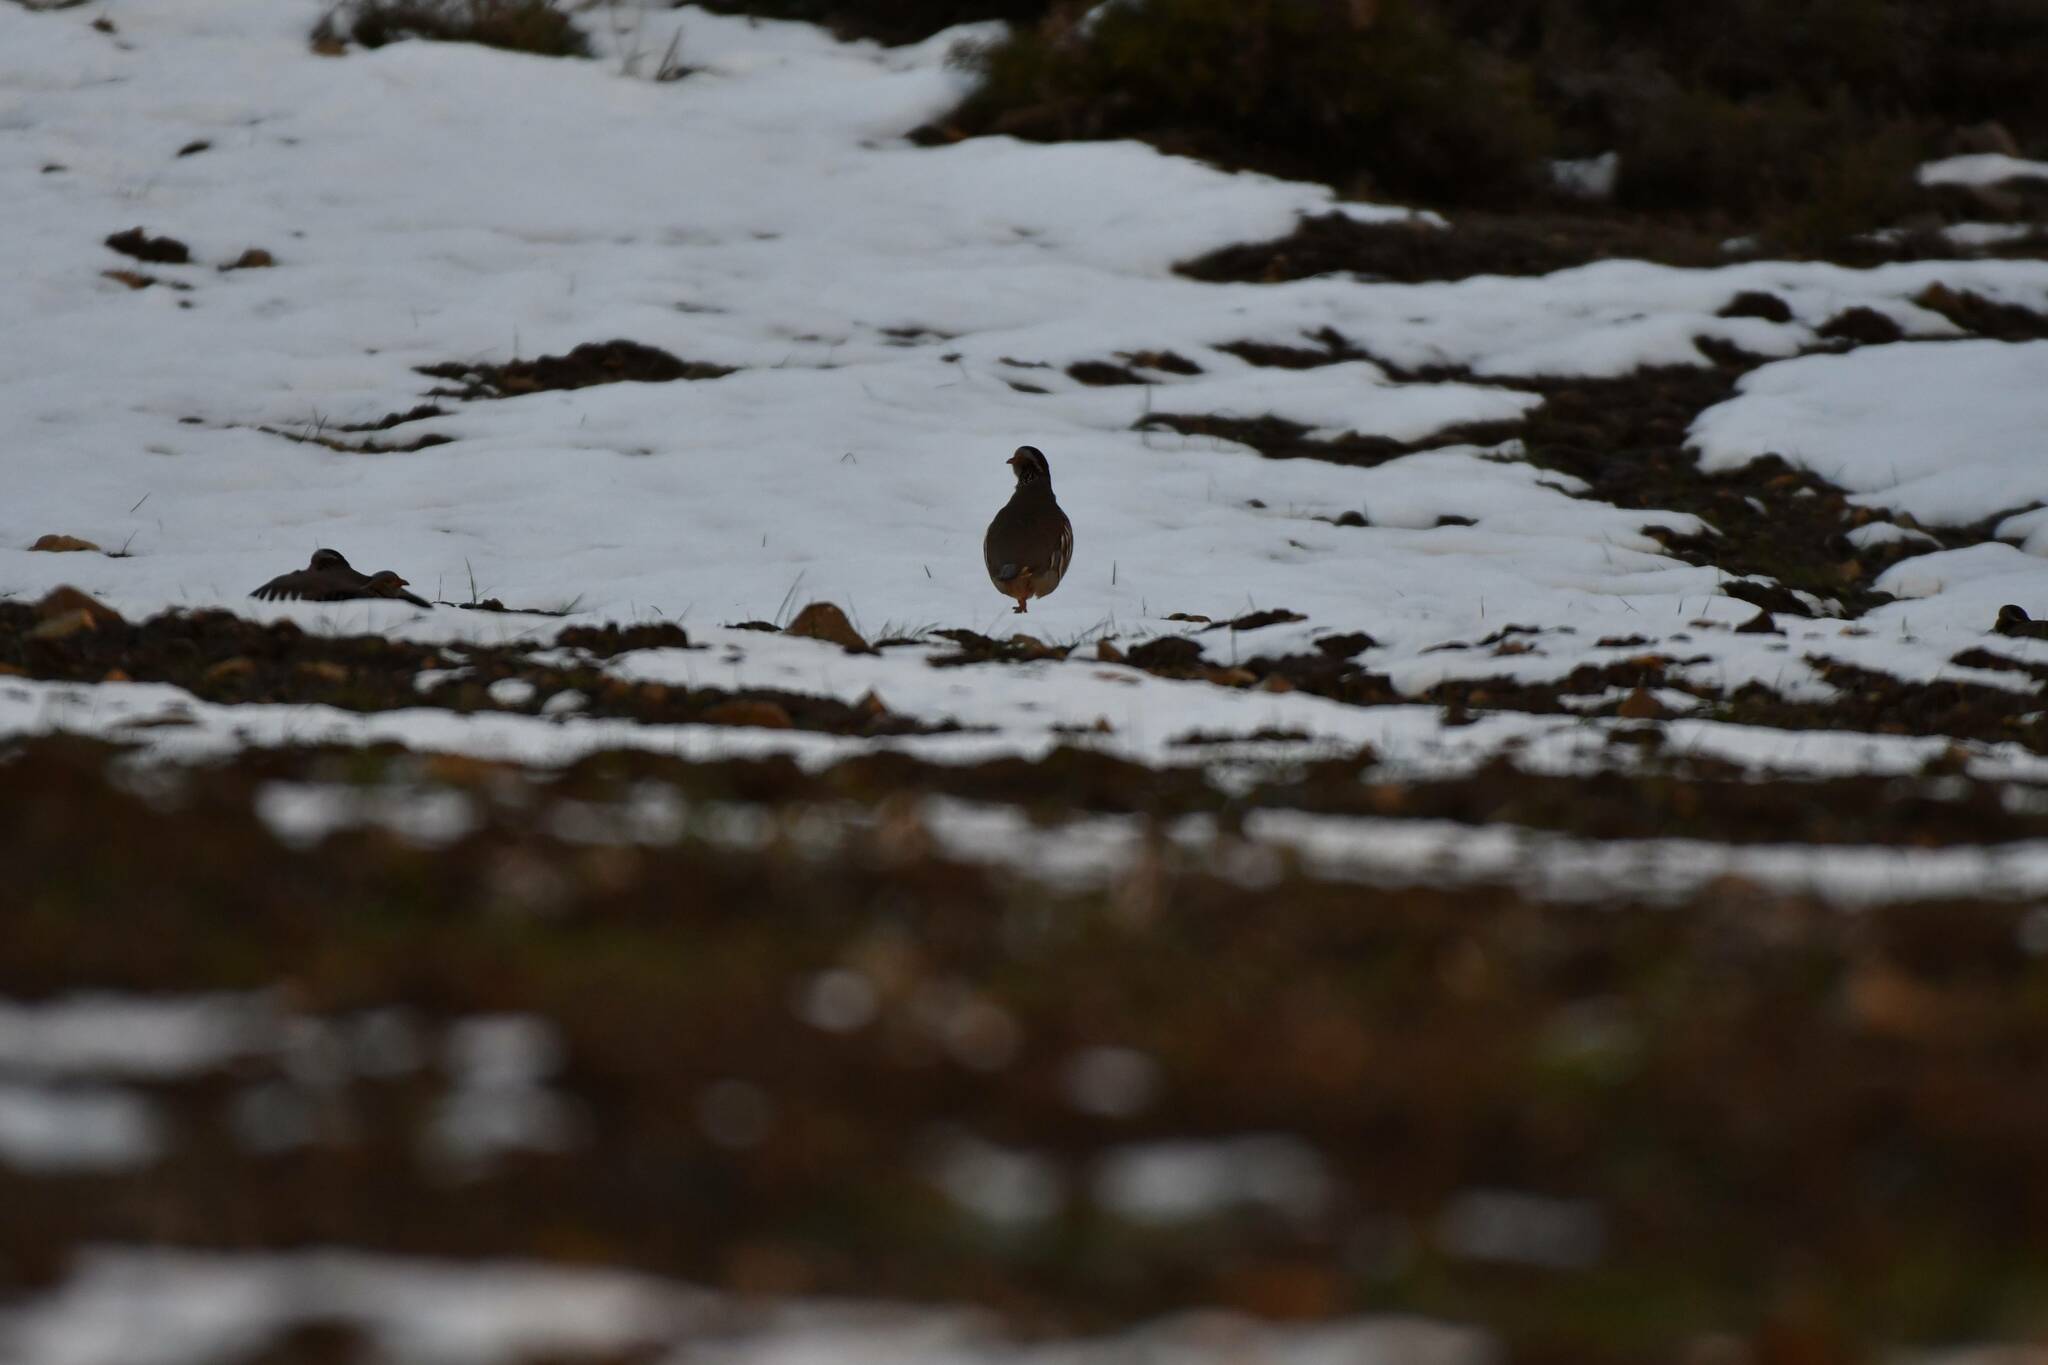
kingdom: Animalia
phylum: Chordata
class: Aves
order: Galliformes
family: Phasianidae
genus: Alectoris
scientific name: Alectoris barbara
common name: Barbary partridge
